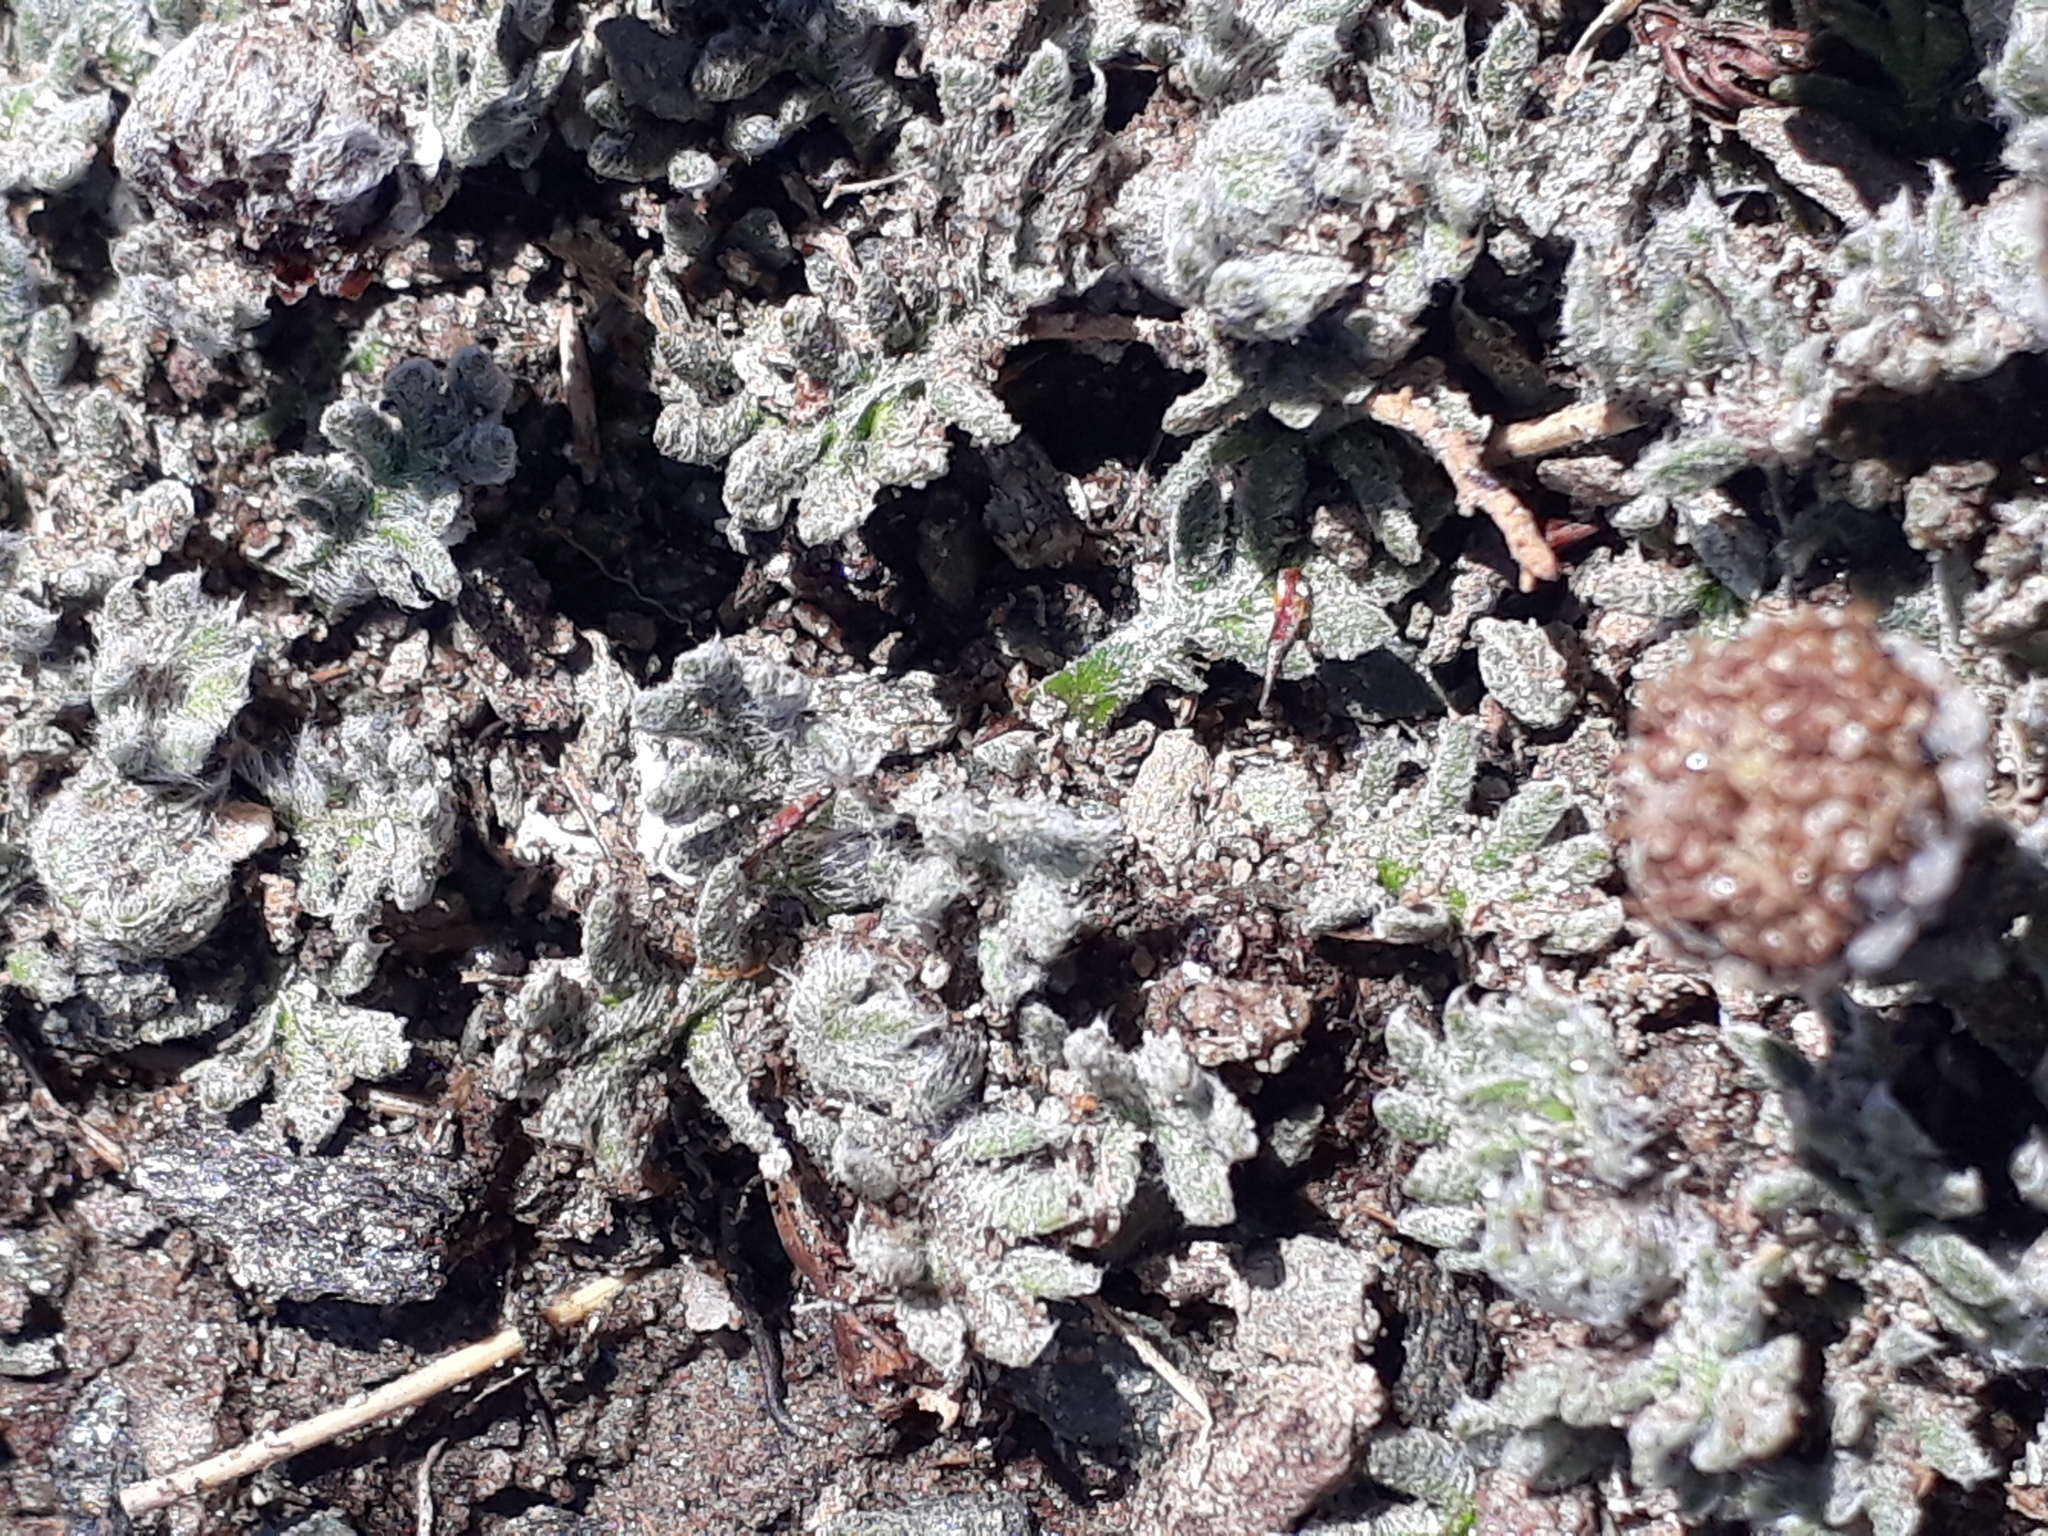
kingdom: Plantae
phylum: Tracheophyta
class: Magnoliopsida
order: Asterales
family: Asteraceae
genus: Leptinella
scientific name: Leptinella albida
